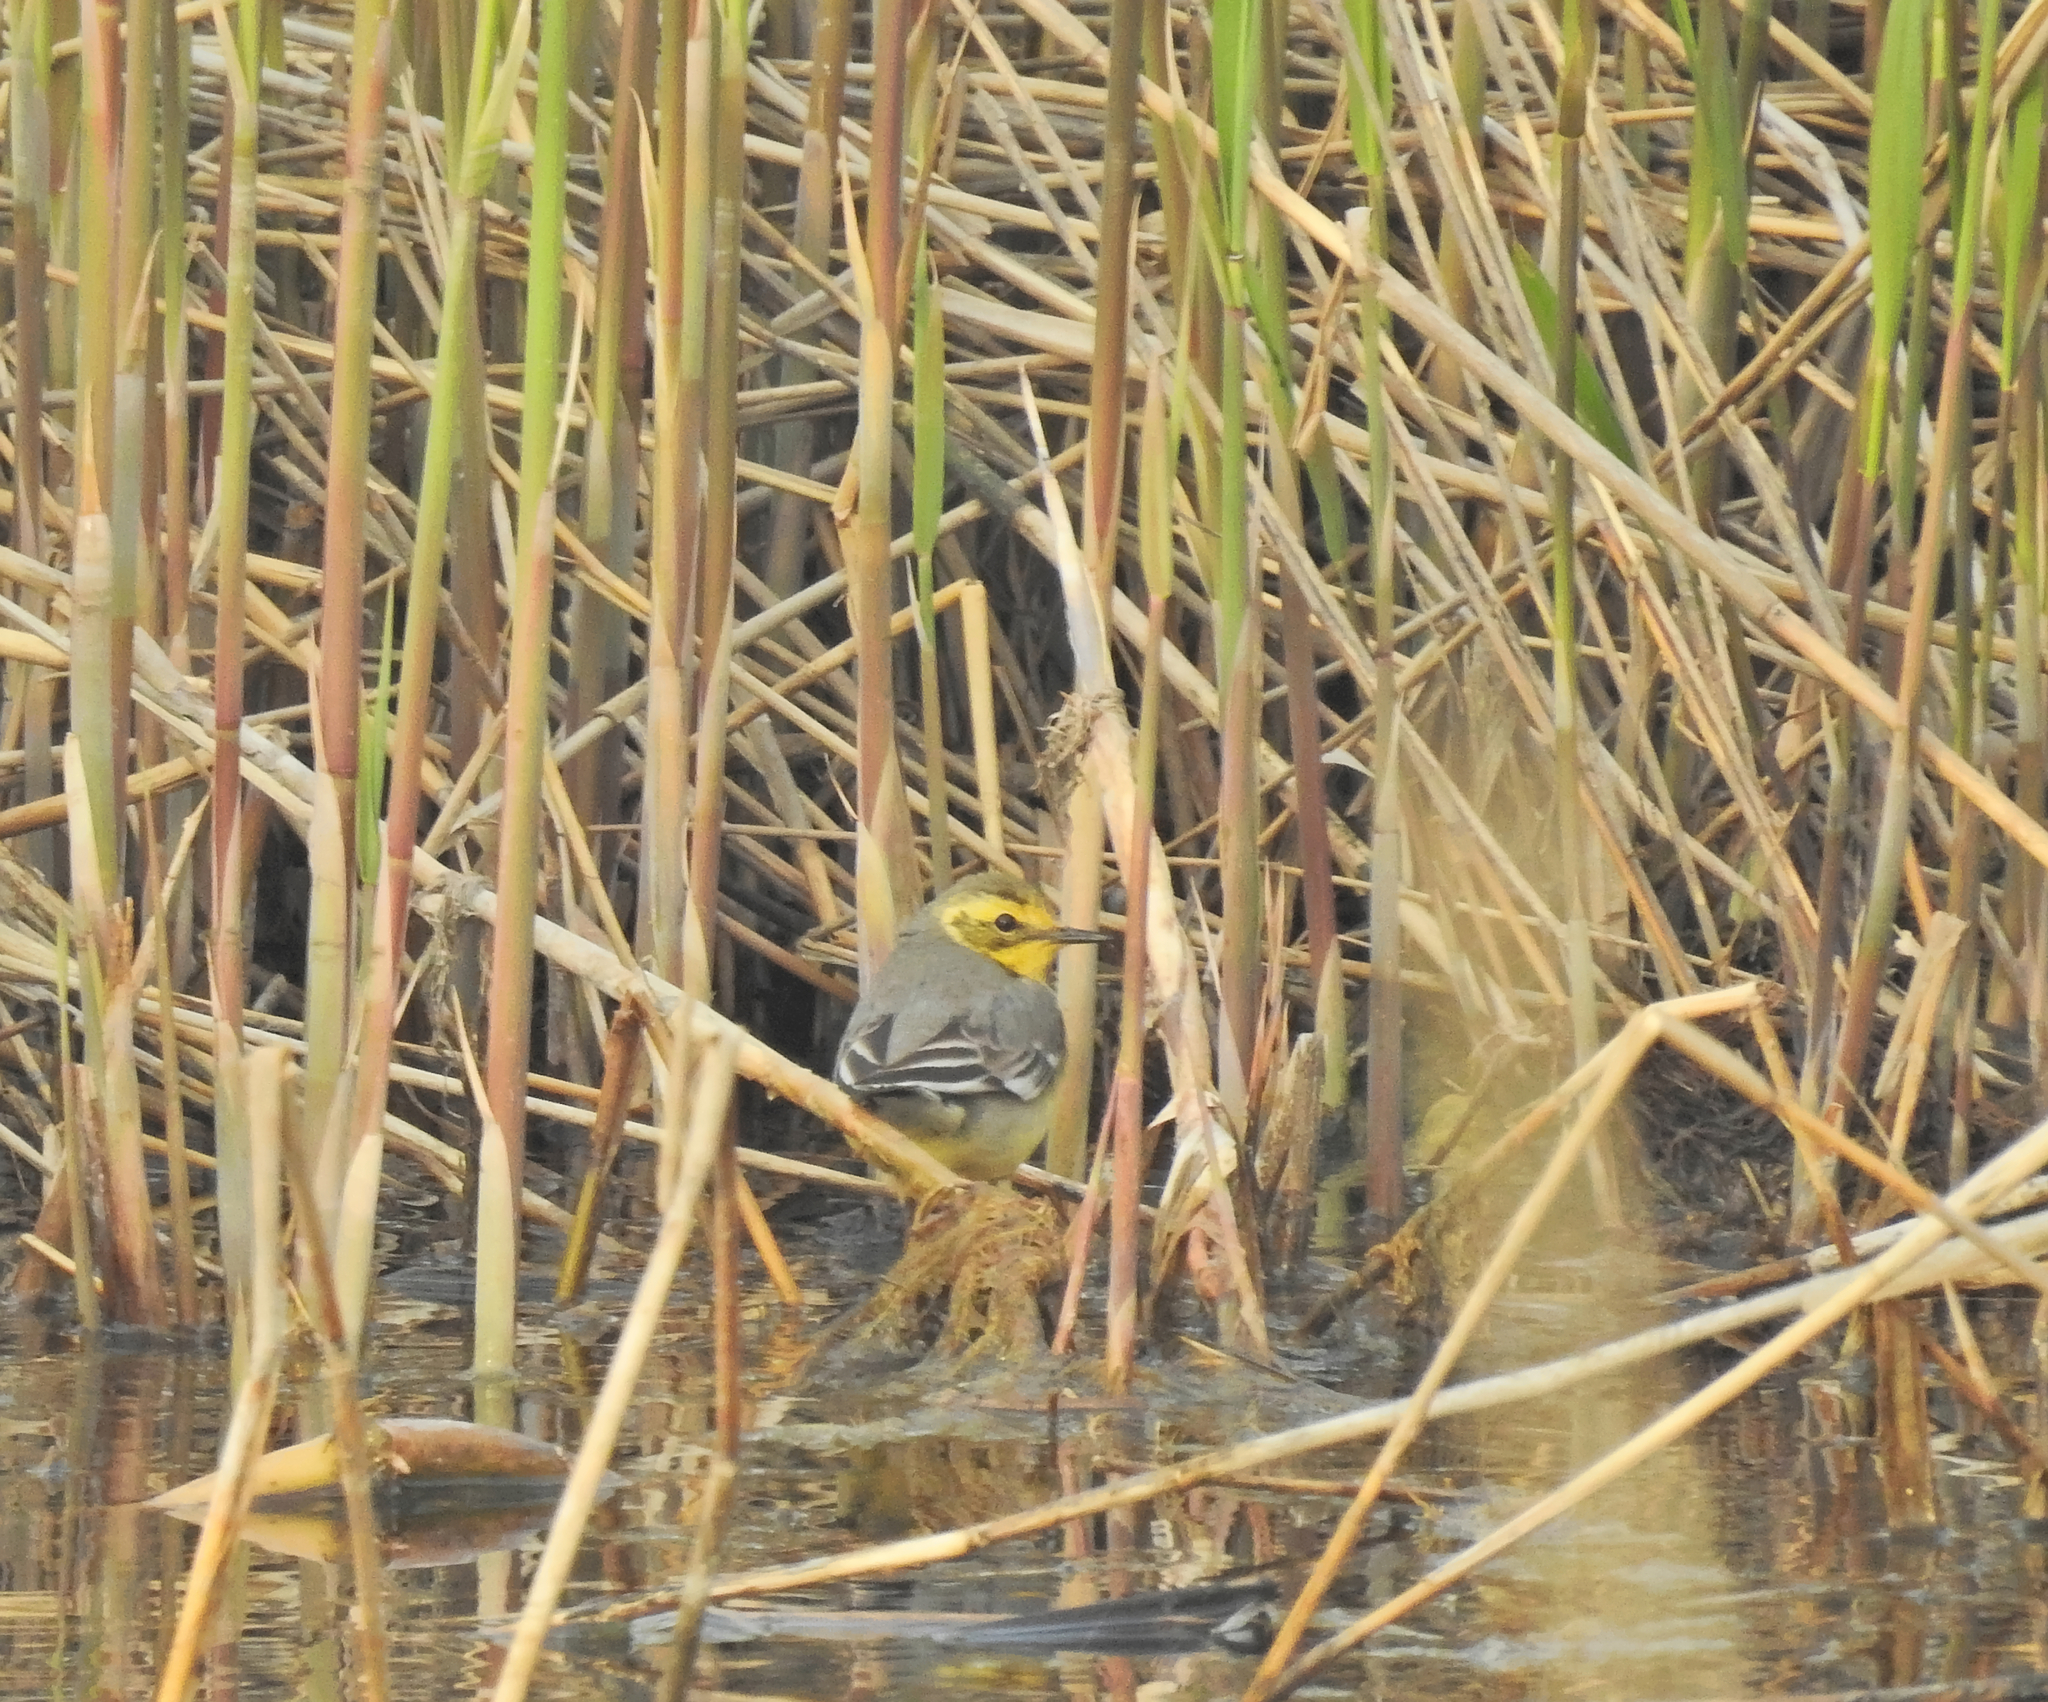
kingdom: Animalia
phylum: Chordata
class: Aves
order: Passeriformes
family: Motacillidae
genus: Motacilla
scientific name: Motacilla citreola
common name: Citrine wagtail
